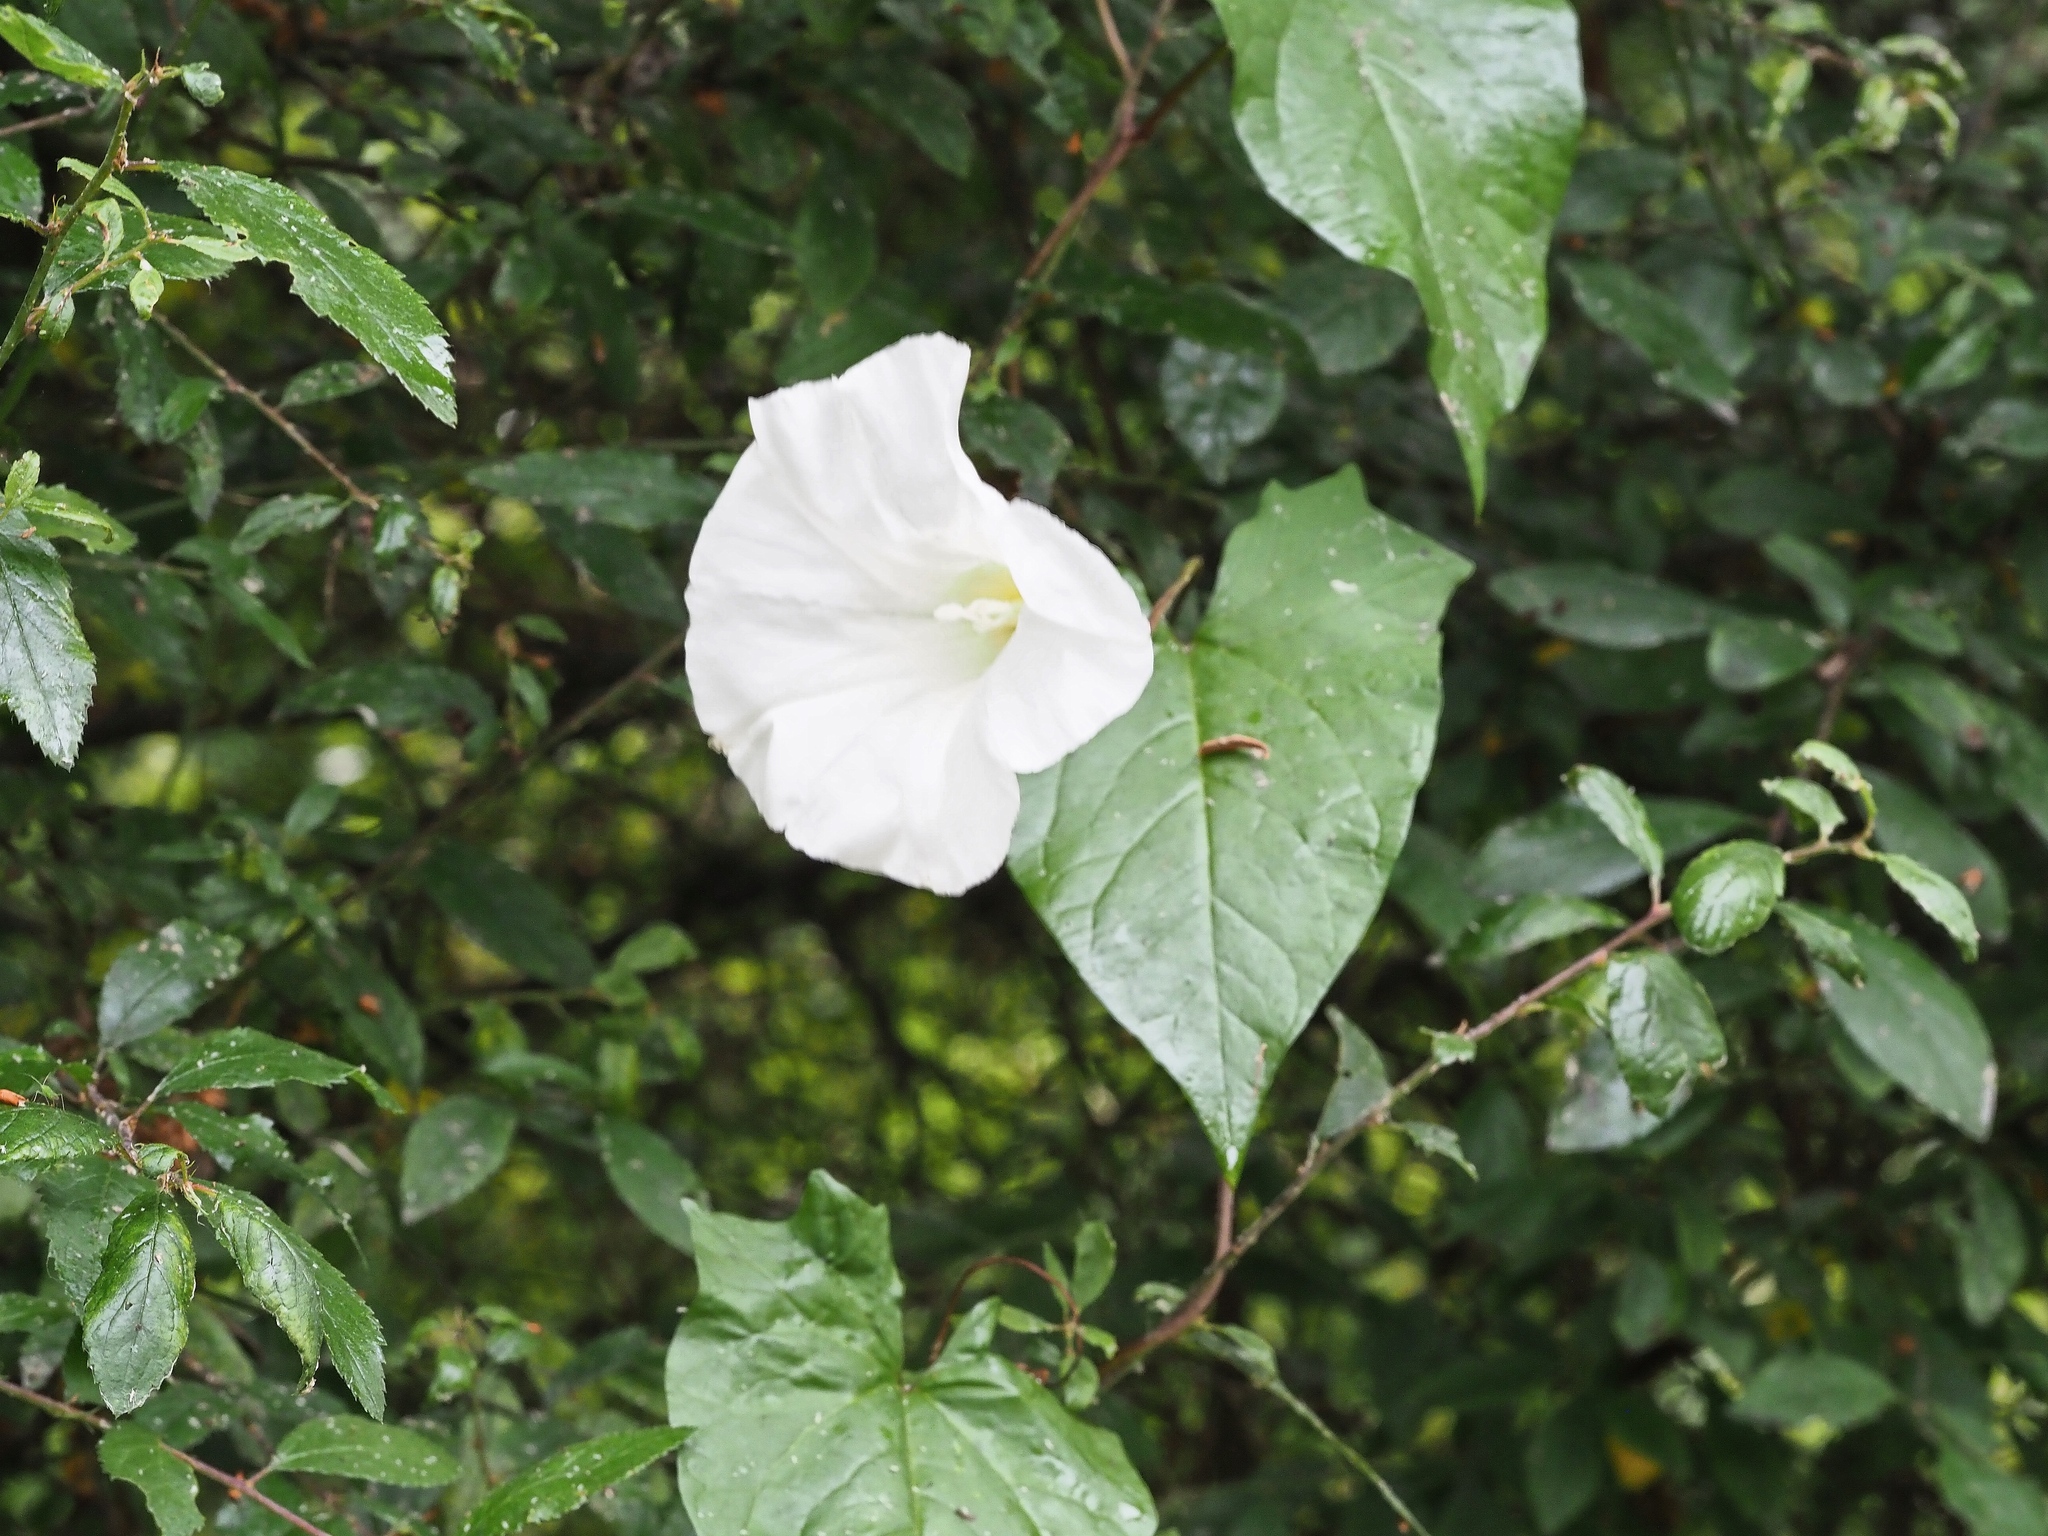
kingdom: Plantae
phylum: Tracheophyta
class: Magnoliopsida
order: Solanales
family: Convolvulaceae
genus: Calystegia
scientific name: Calystegia
